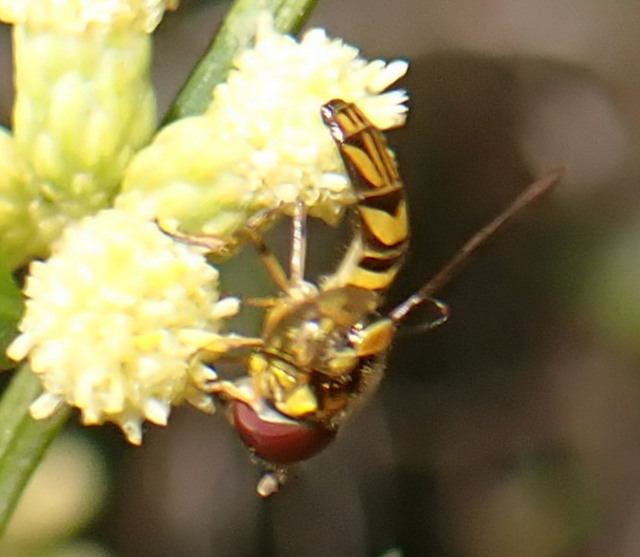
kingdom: Animalia
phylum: Arthropoda
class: Insecta
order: Diptera
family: Syrphidae
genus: Allograpta
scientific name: Allograpta obliqua
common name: Common oblique syrphid
